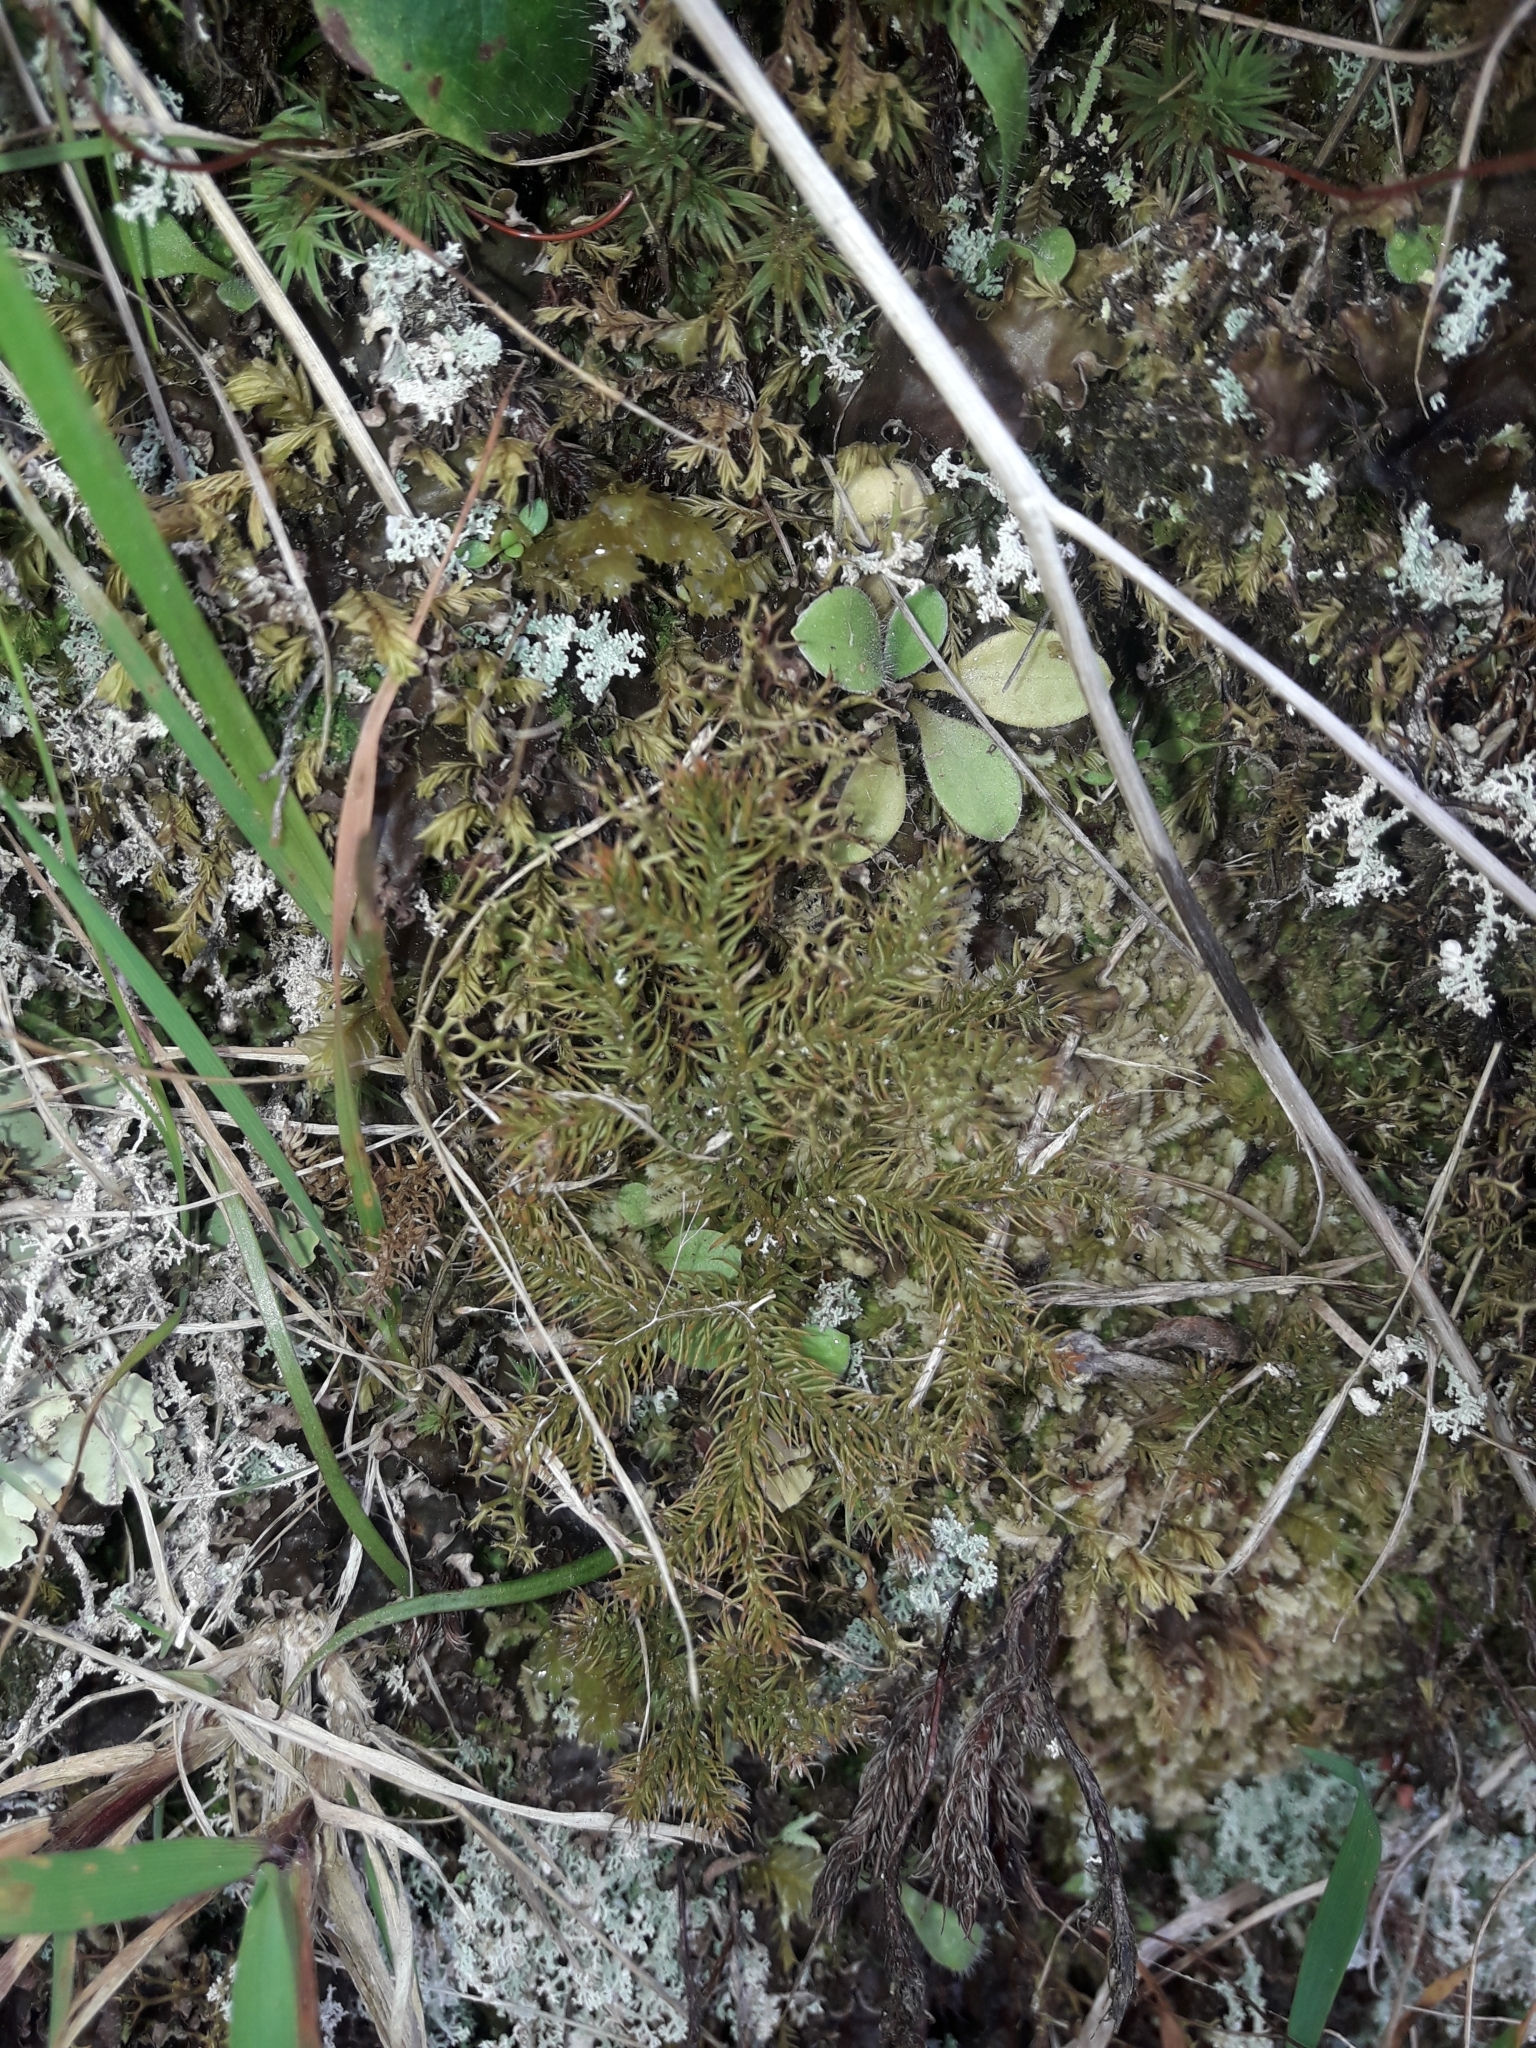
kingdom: Plantae
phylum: Tracheophyta
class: Lycopodiopsida
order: Lycopodiales
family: Lycopodiaceae
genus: Austrolycopodium
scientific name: Austrolycopodium fastigiatum
